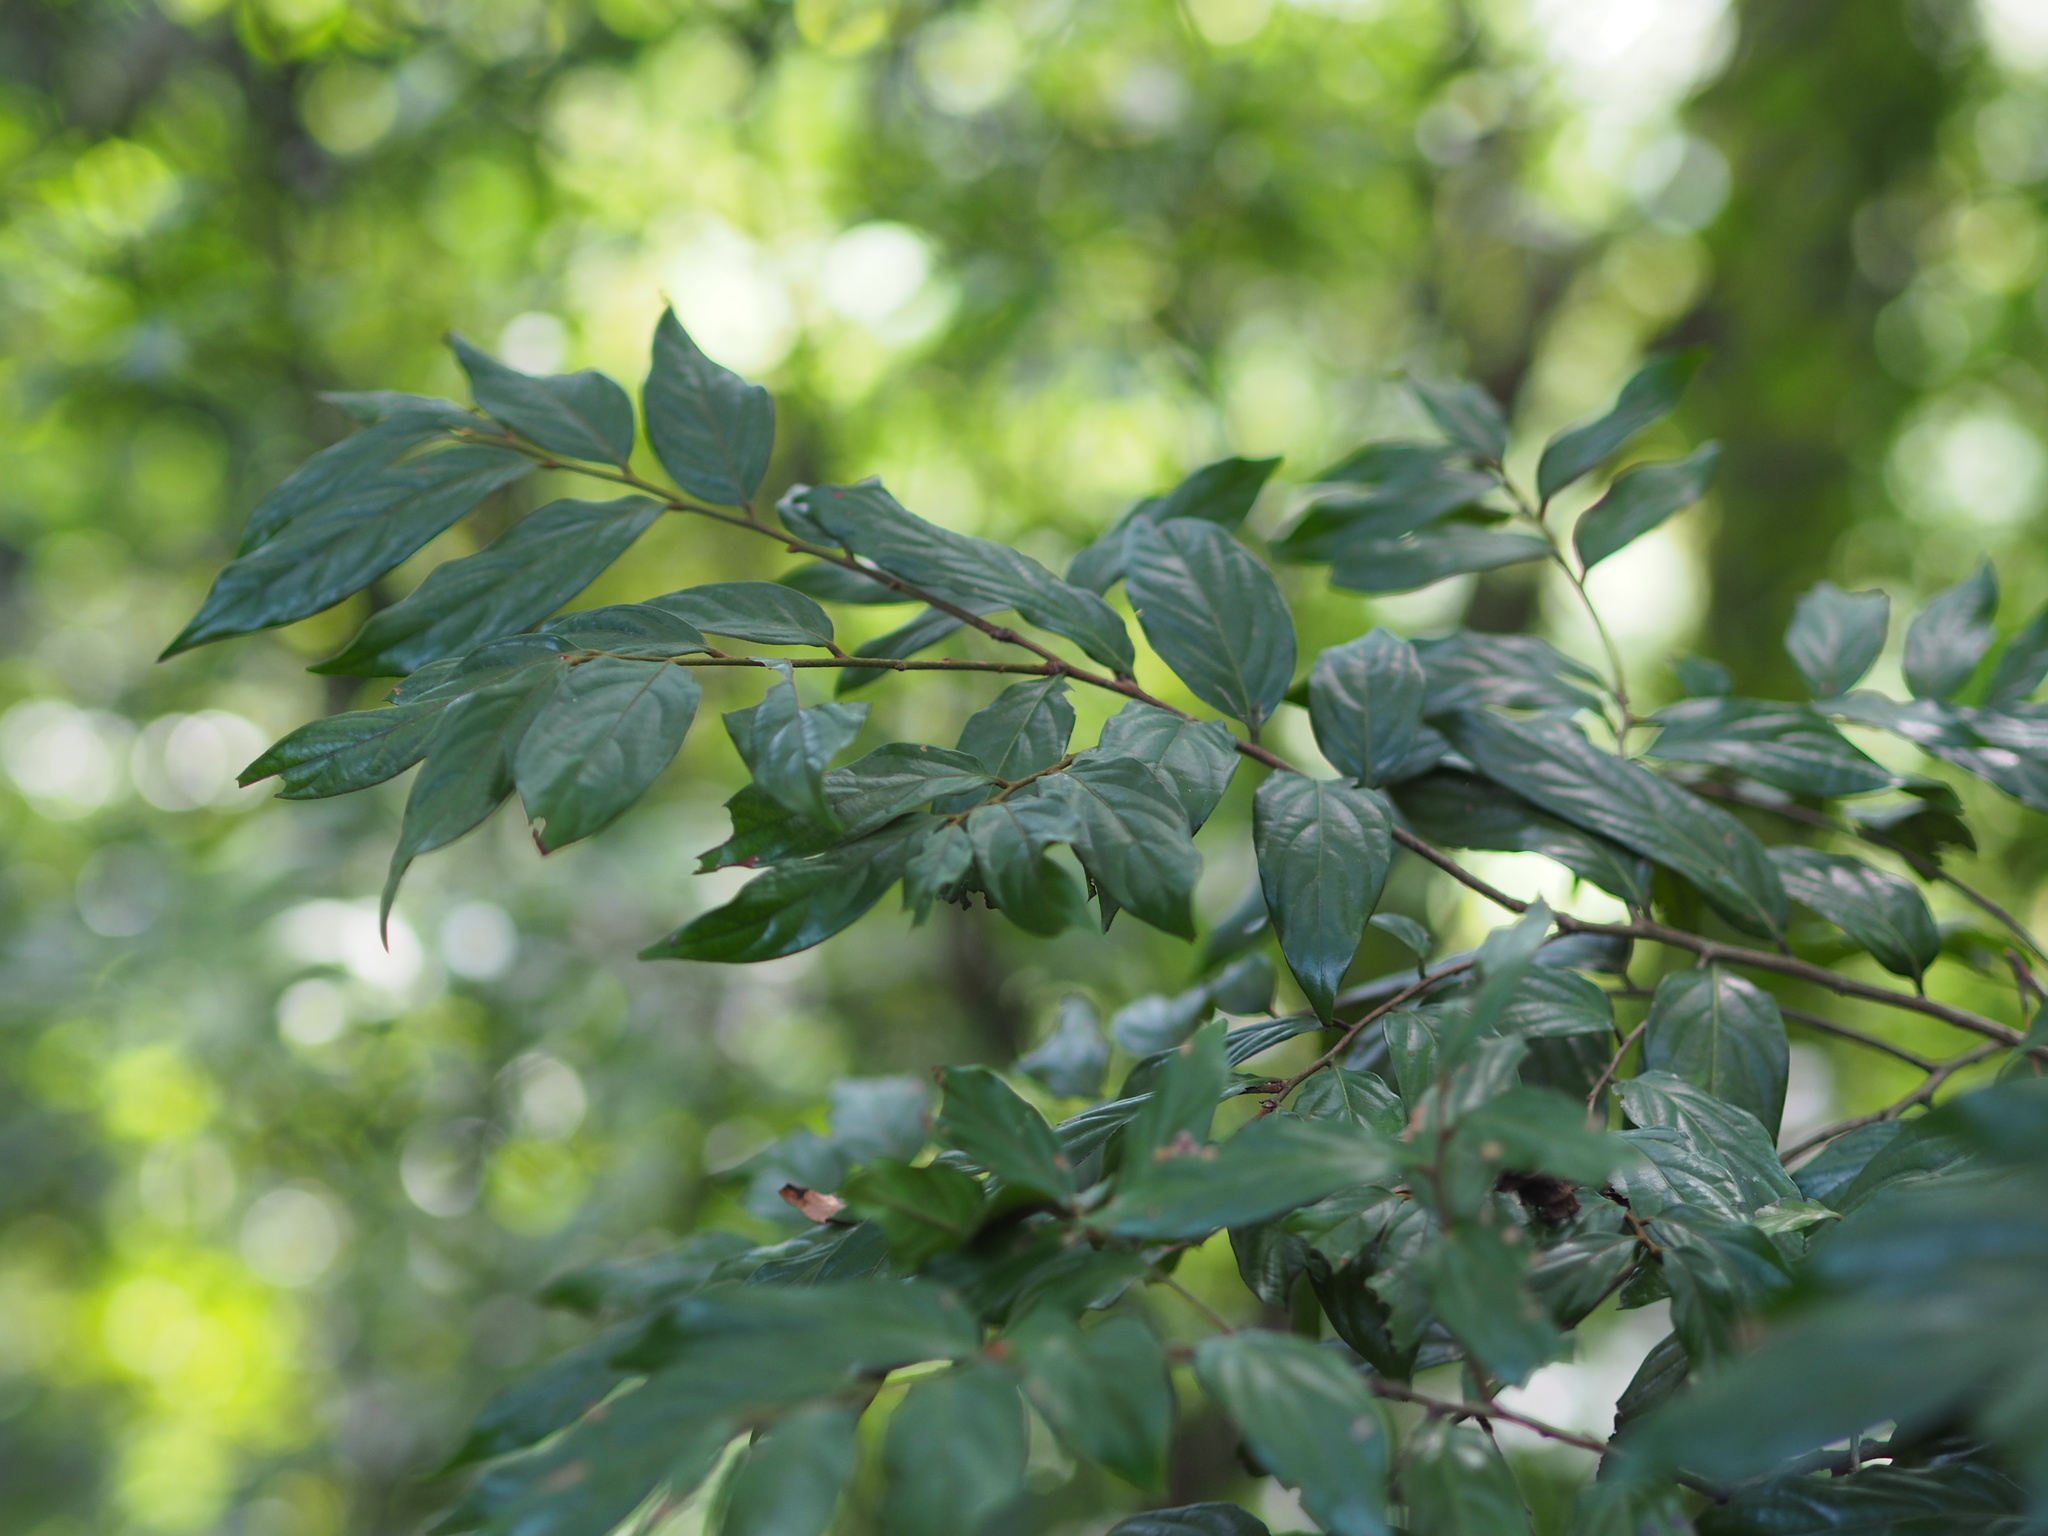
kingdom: Plantae
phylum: Tracheophyta
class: Magnoliopsida
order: Ericales
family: Ebenaceae
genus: Diospyros
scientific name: Diospyros eriantha
